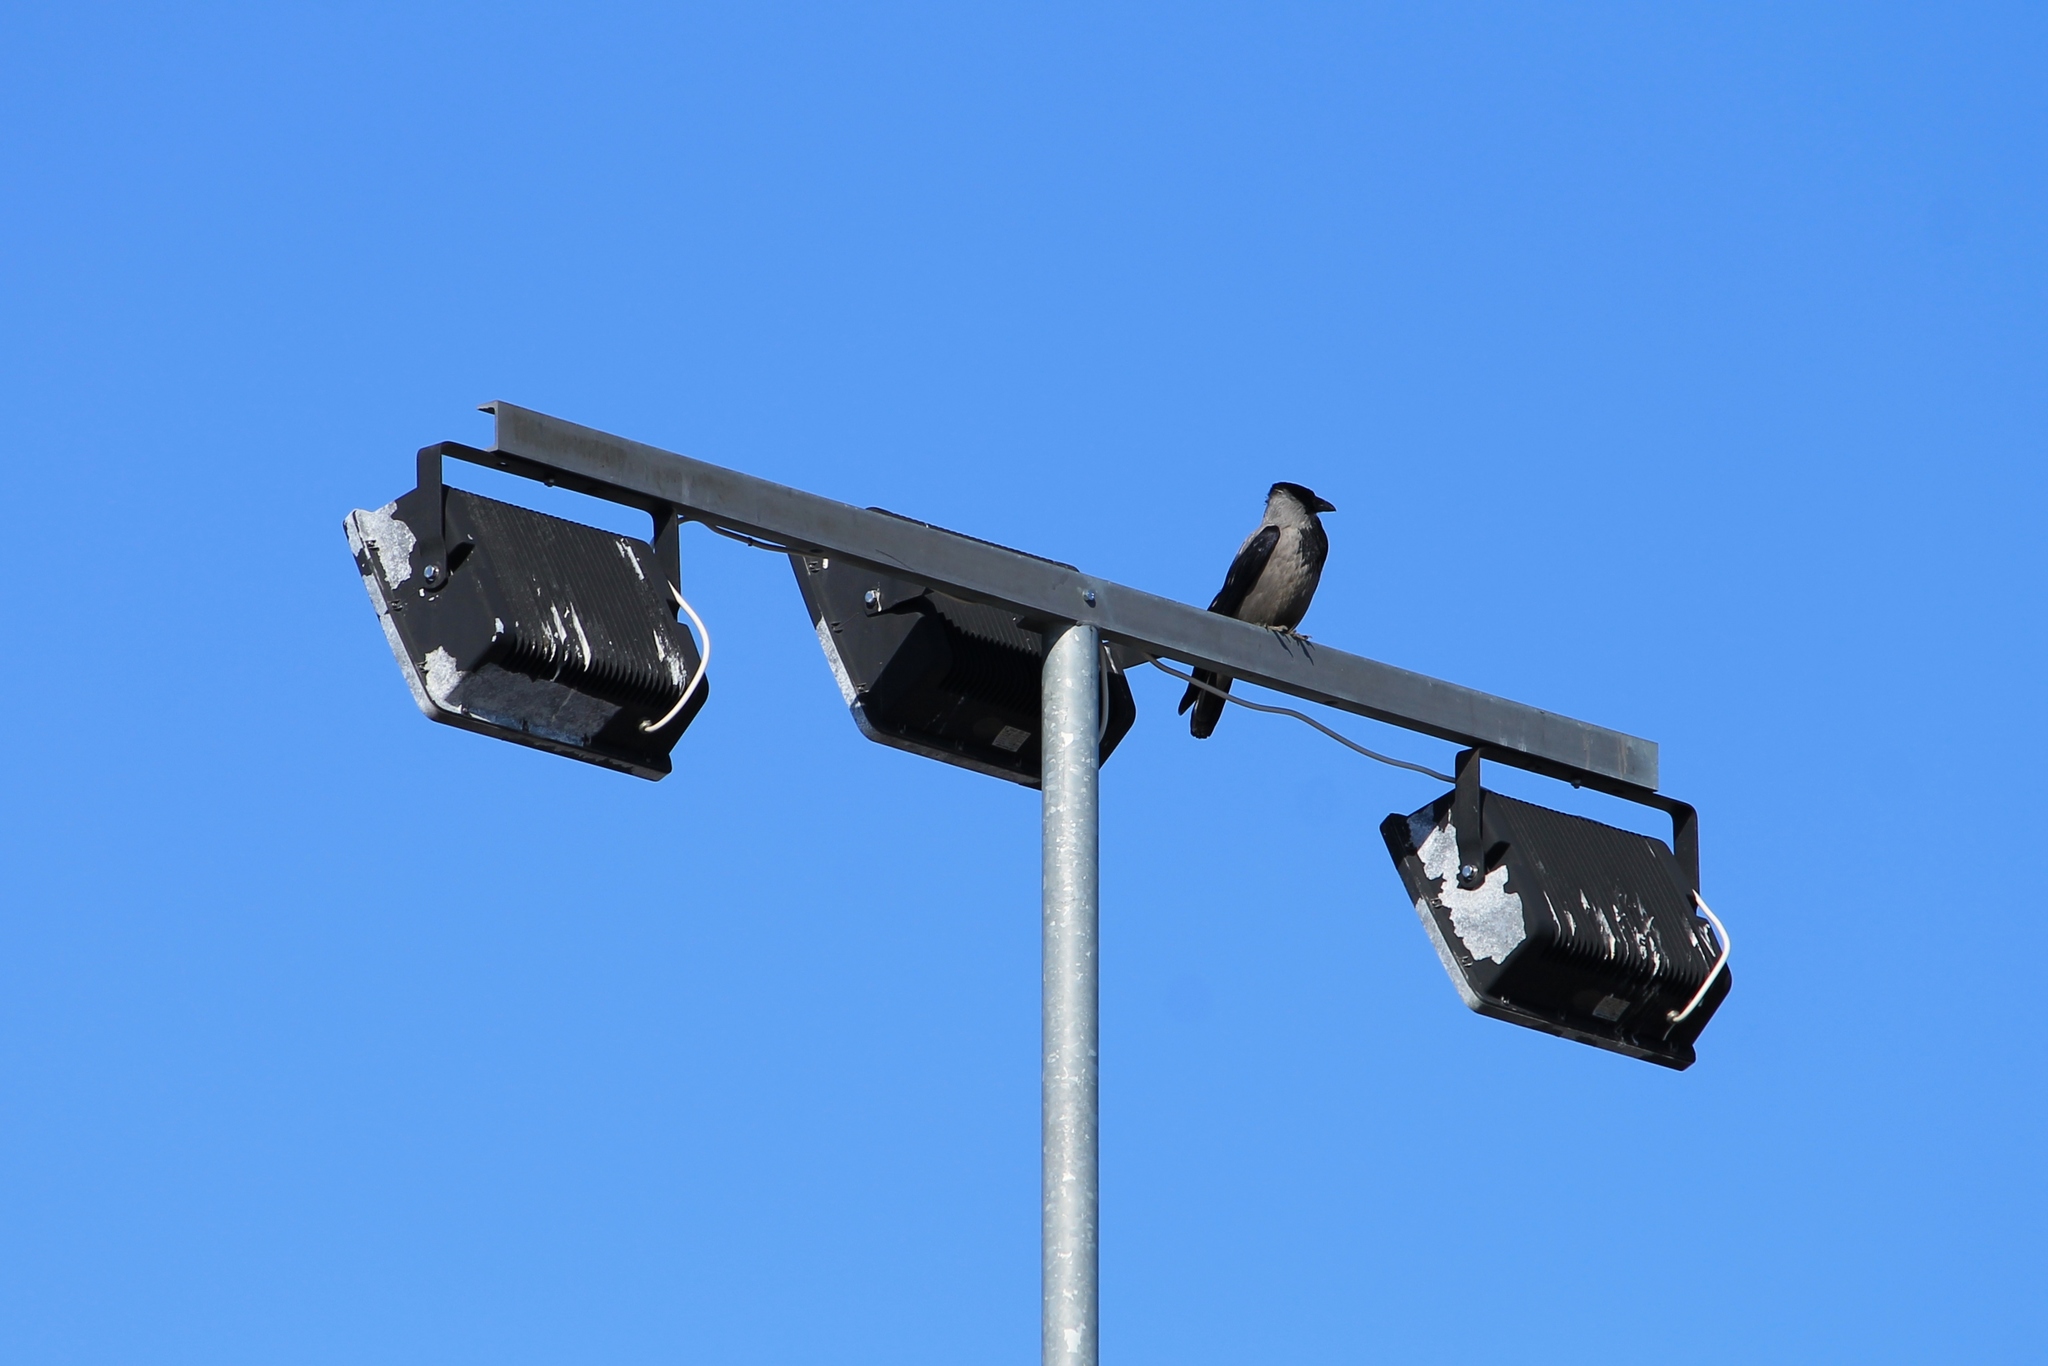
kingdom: Animalia
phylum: Chordata
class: Aves
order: Passeriformes
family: Corvidae
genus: Corvus
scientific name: Corvus cornix
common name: Hooded crow
